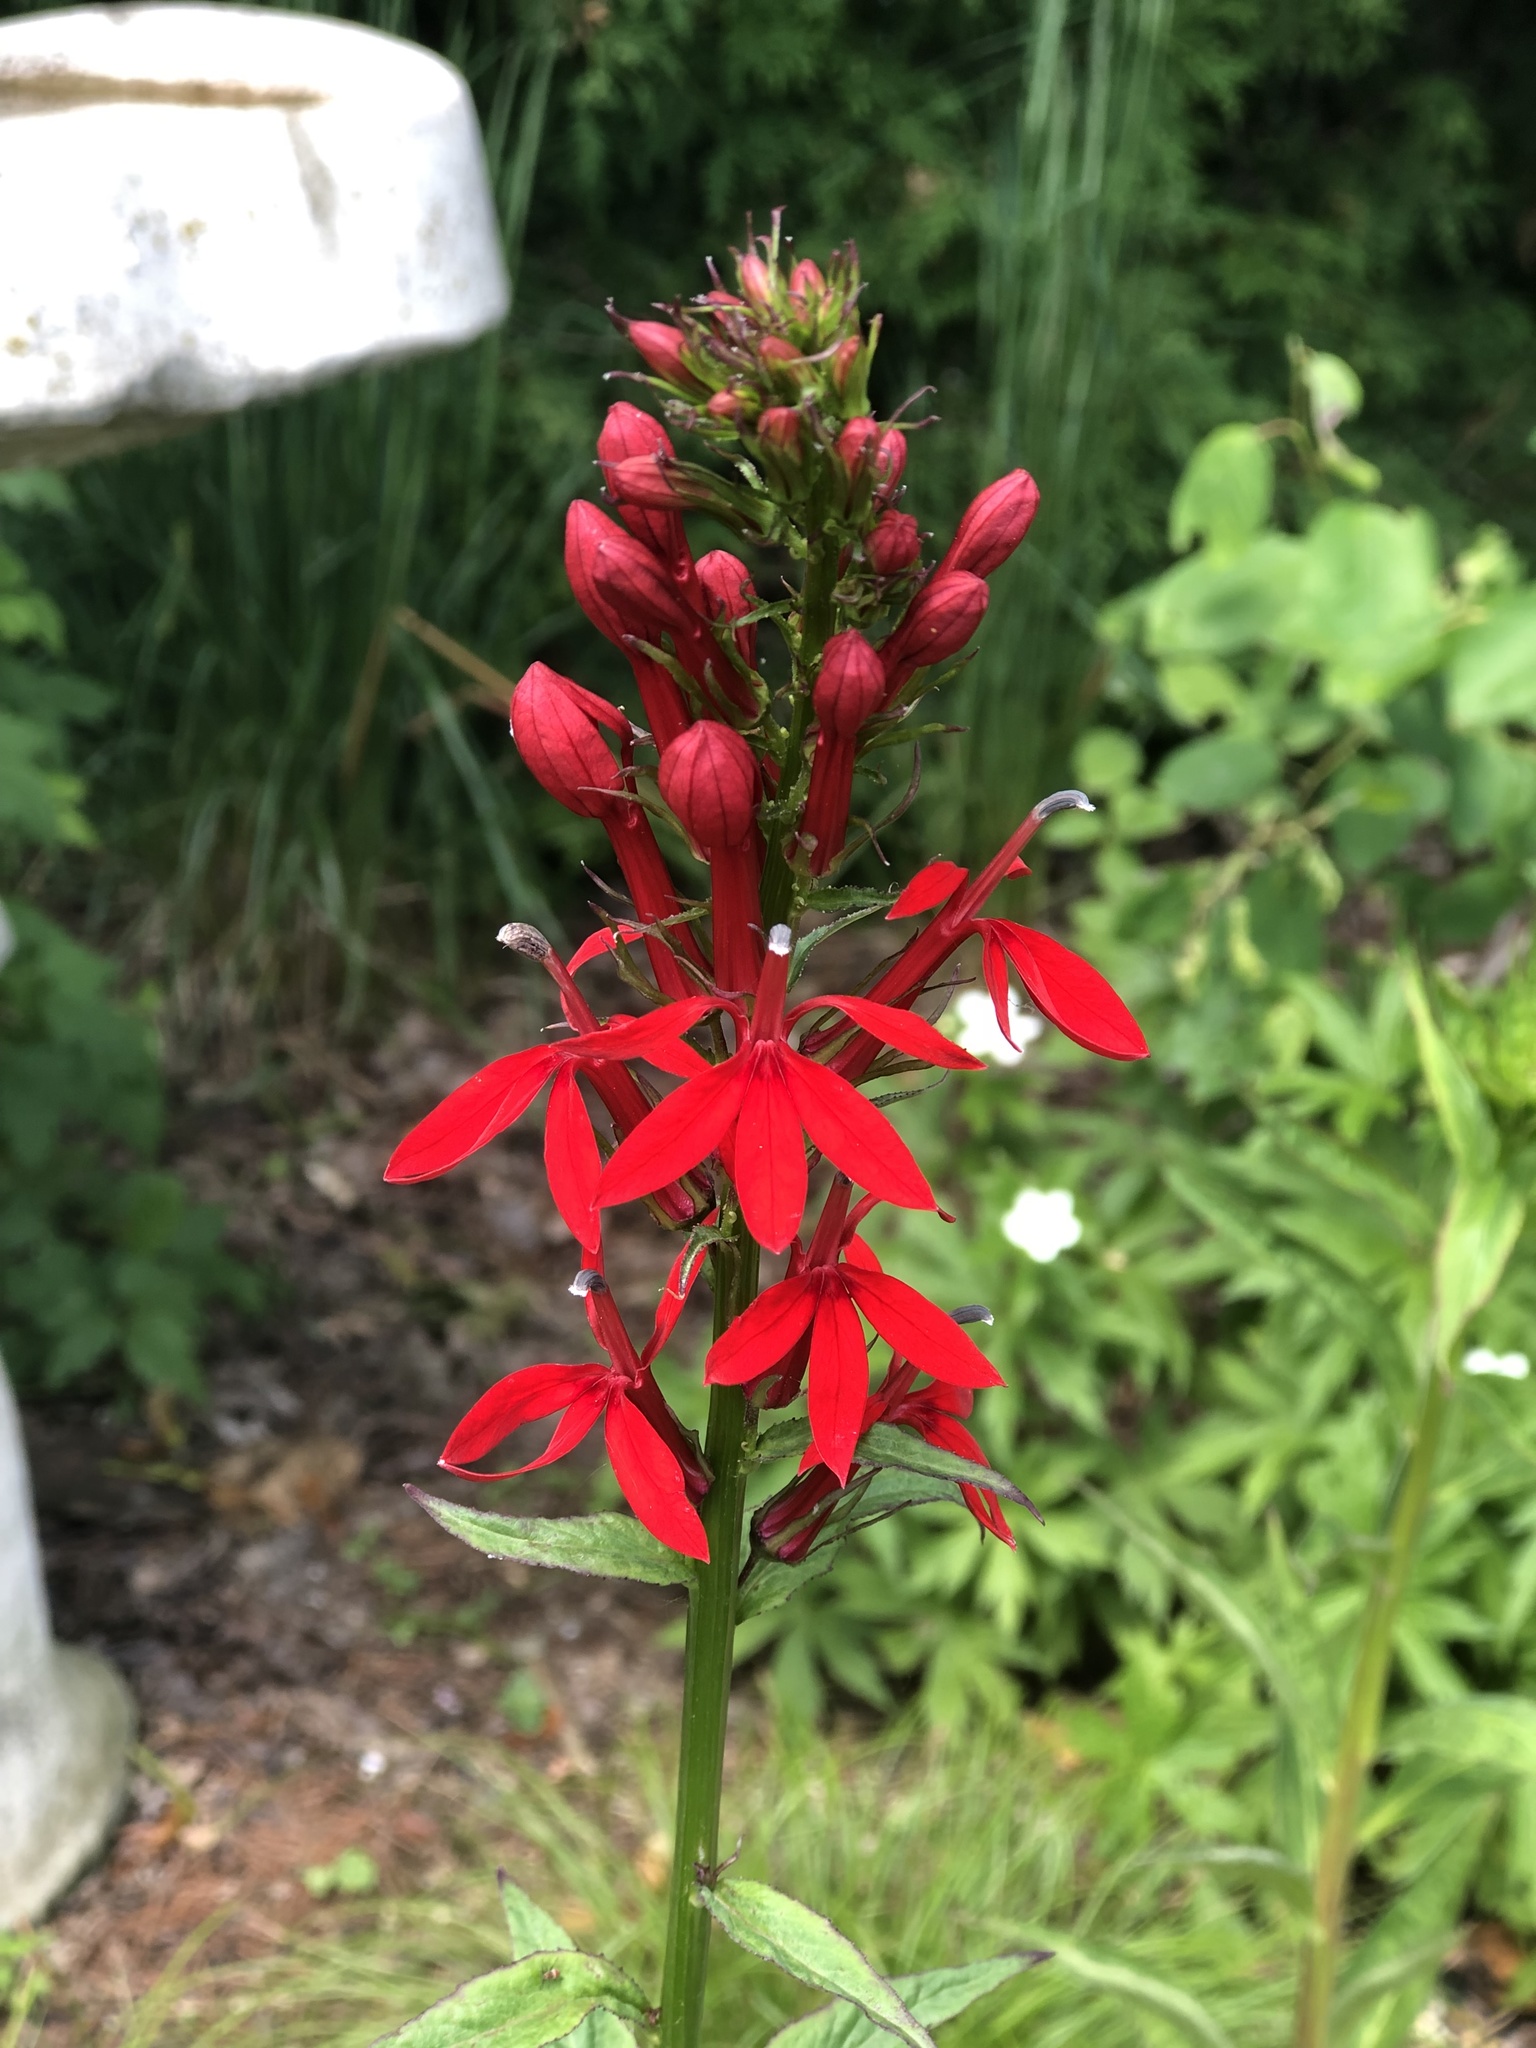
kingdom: Plantae
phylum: Tracheophyta
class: Magnoliopsida
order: Asterales
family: Campanulaceae
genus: Lobelia
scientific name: Lobelia cardinalis
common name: Cardinal flower
